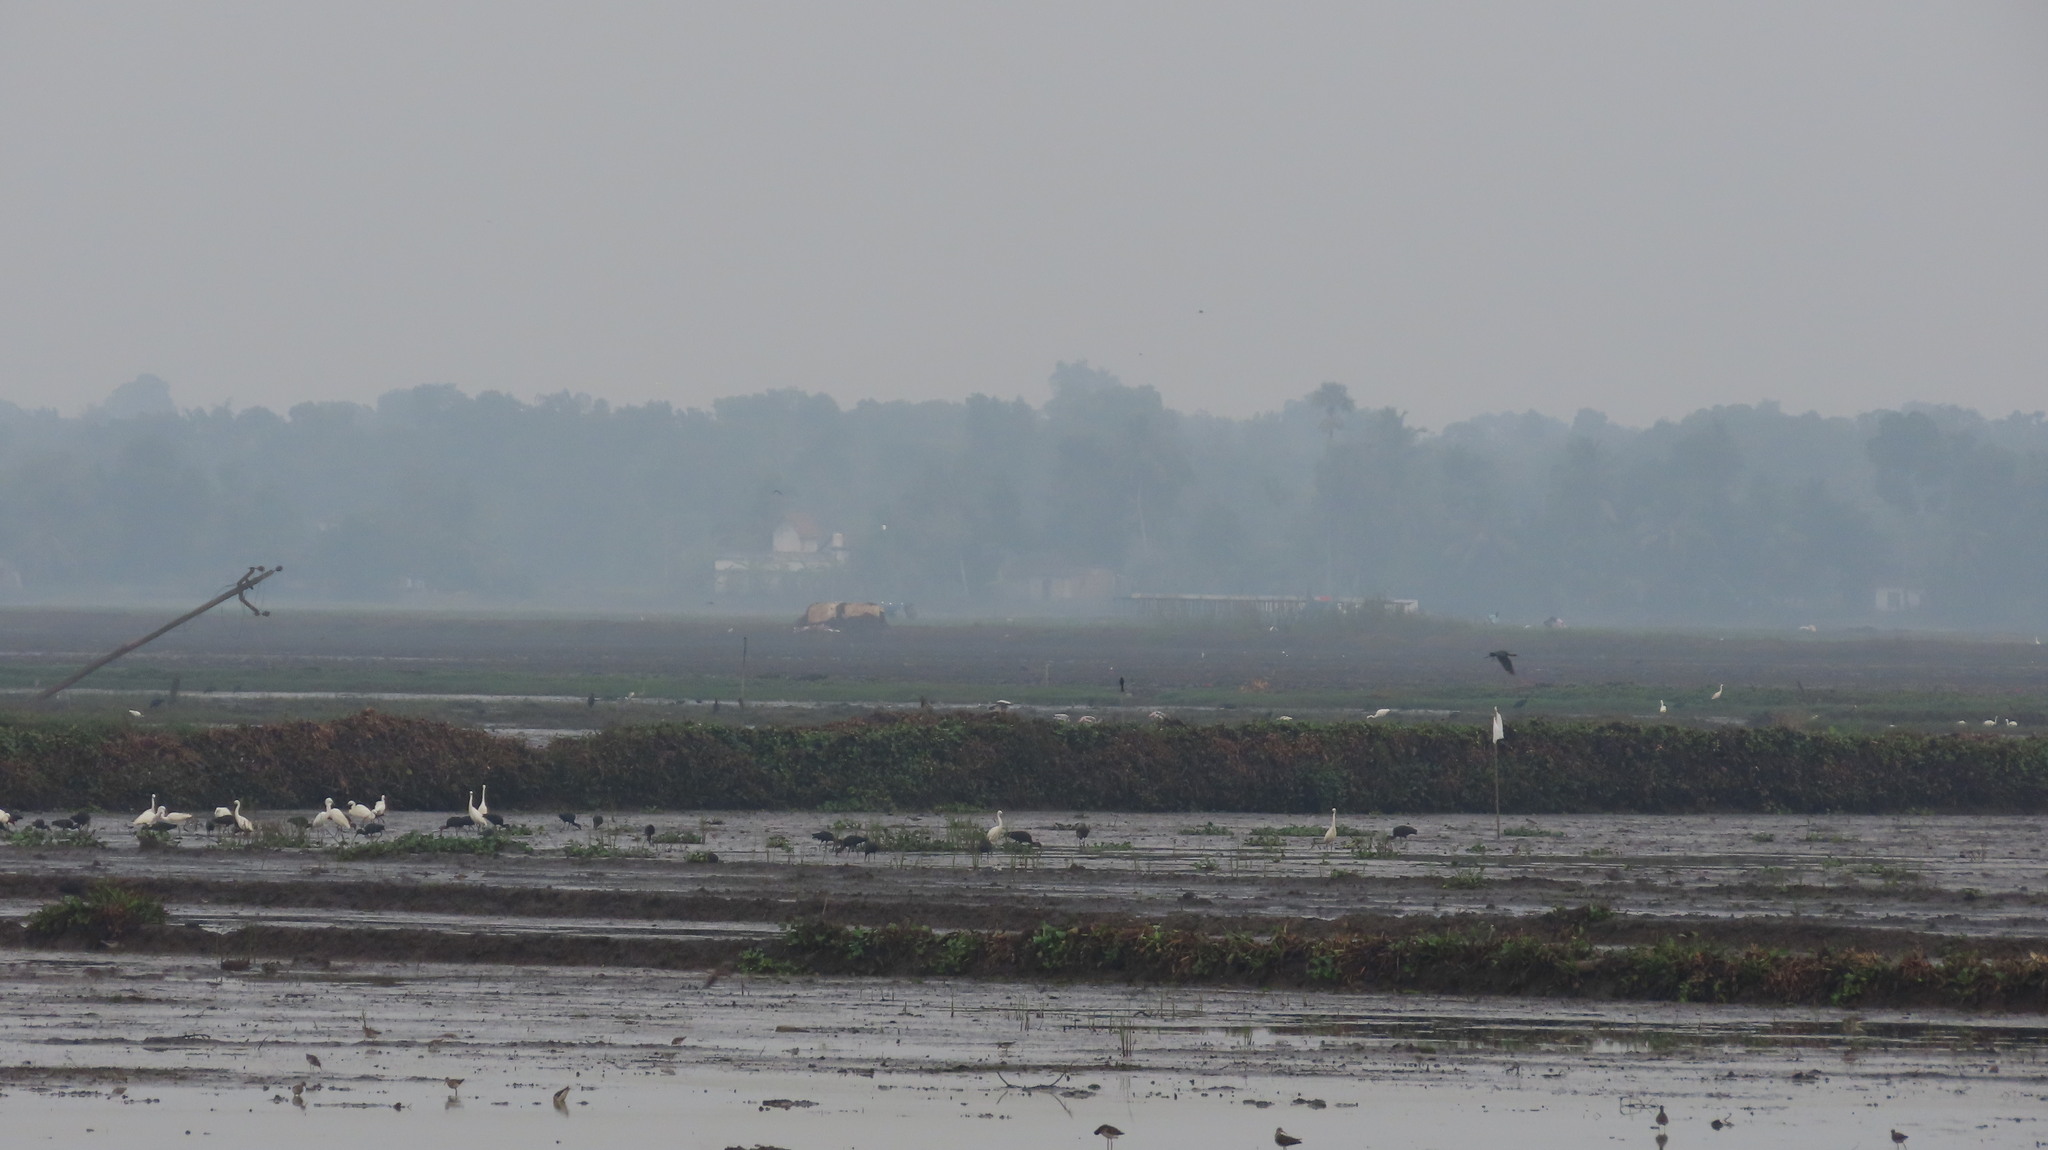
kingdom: Animalia
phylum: Chordata
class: Aves
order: Pelecaniformes
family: Ardeidae
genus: Egretta
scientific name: Egretta garzetta
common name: Little egret
